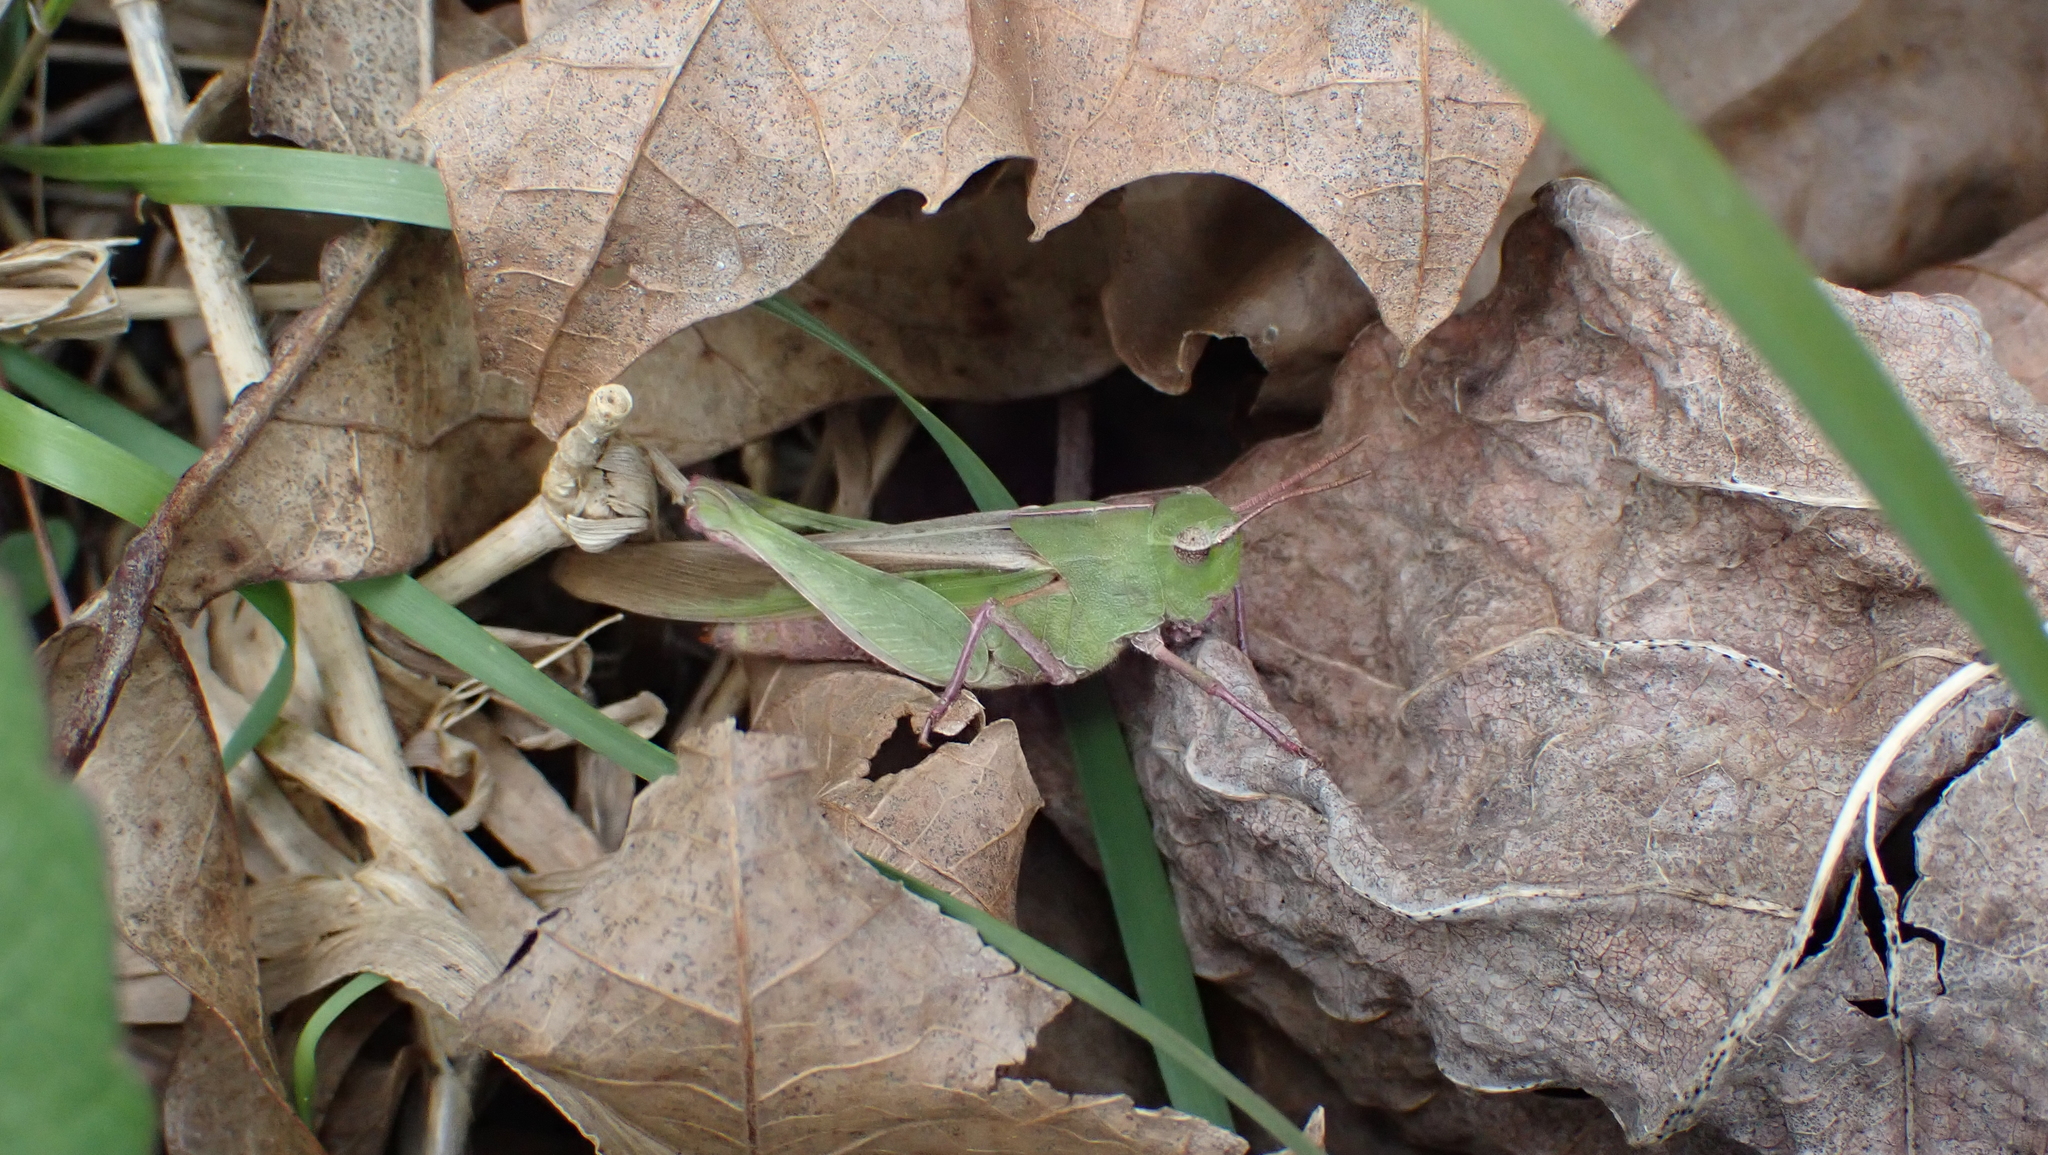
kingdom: Animalia
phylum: Arthropoda
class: Insecta
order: Orthoptera
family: Acrididae
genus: Chortophaga
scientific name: Chortophaga viridifasciata
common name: Green-striped grasshopper
